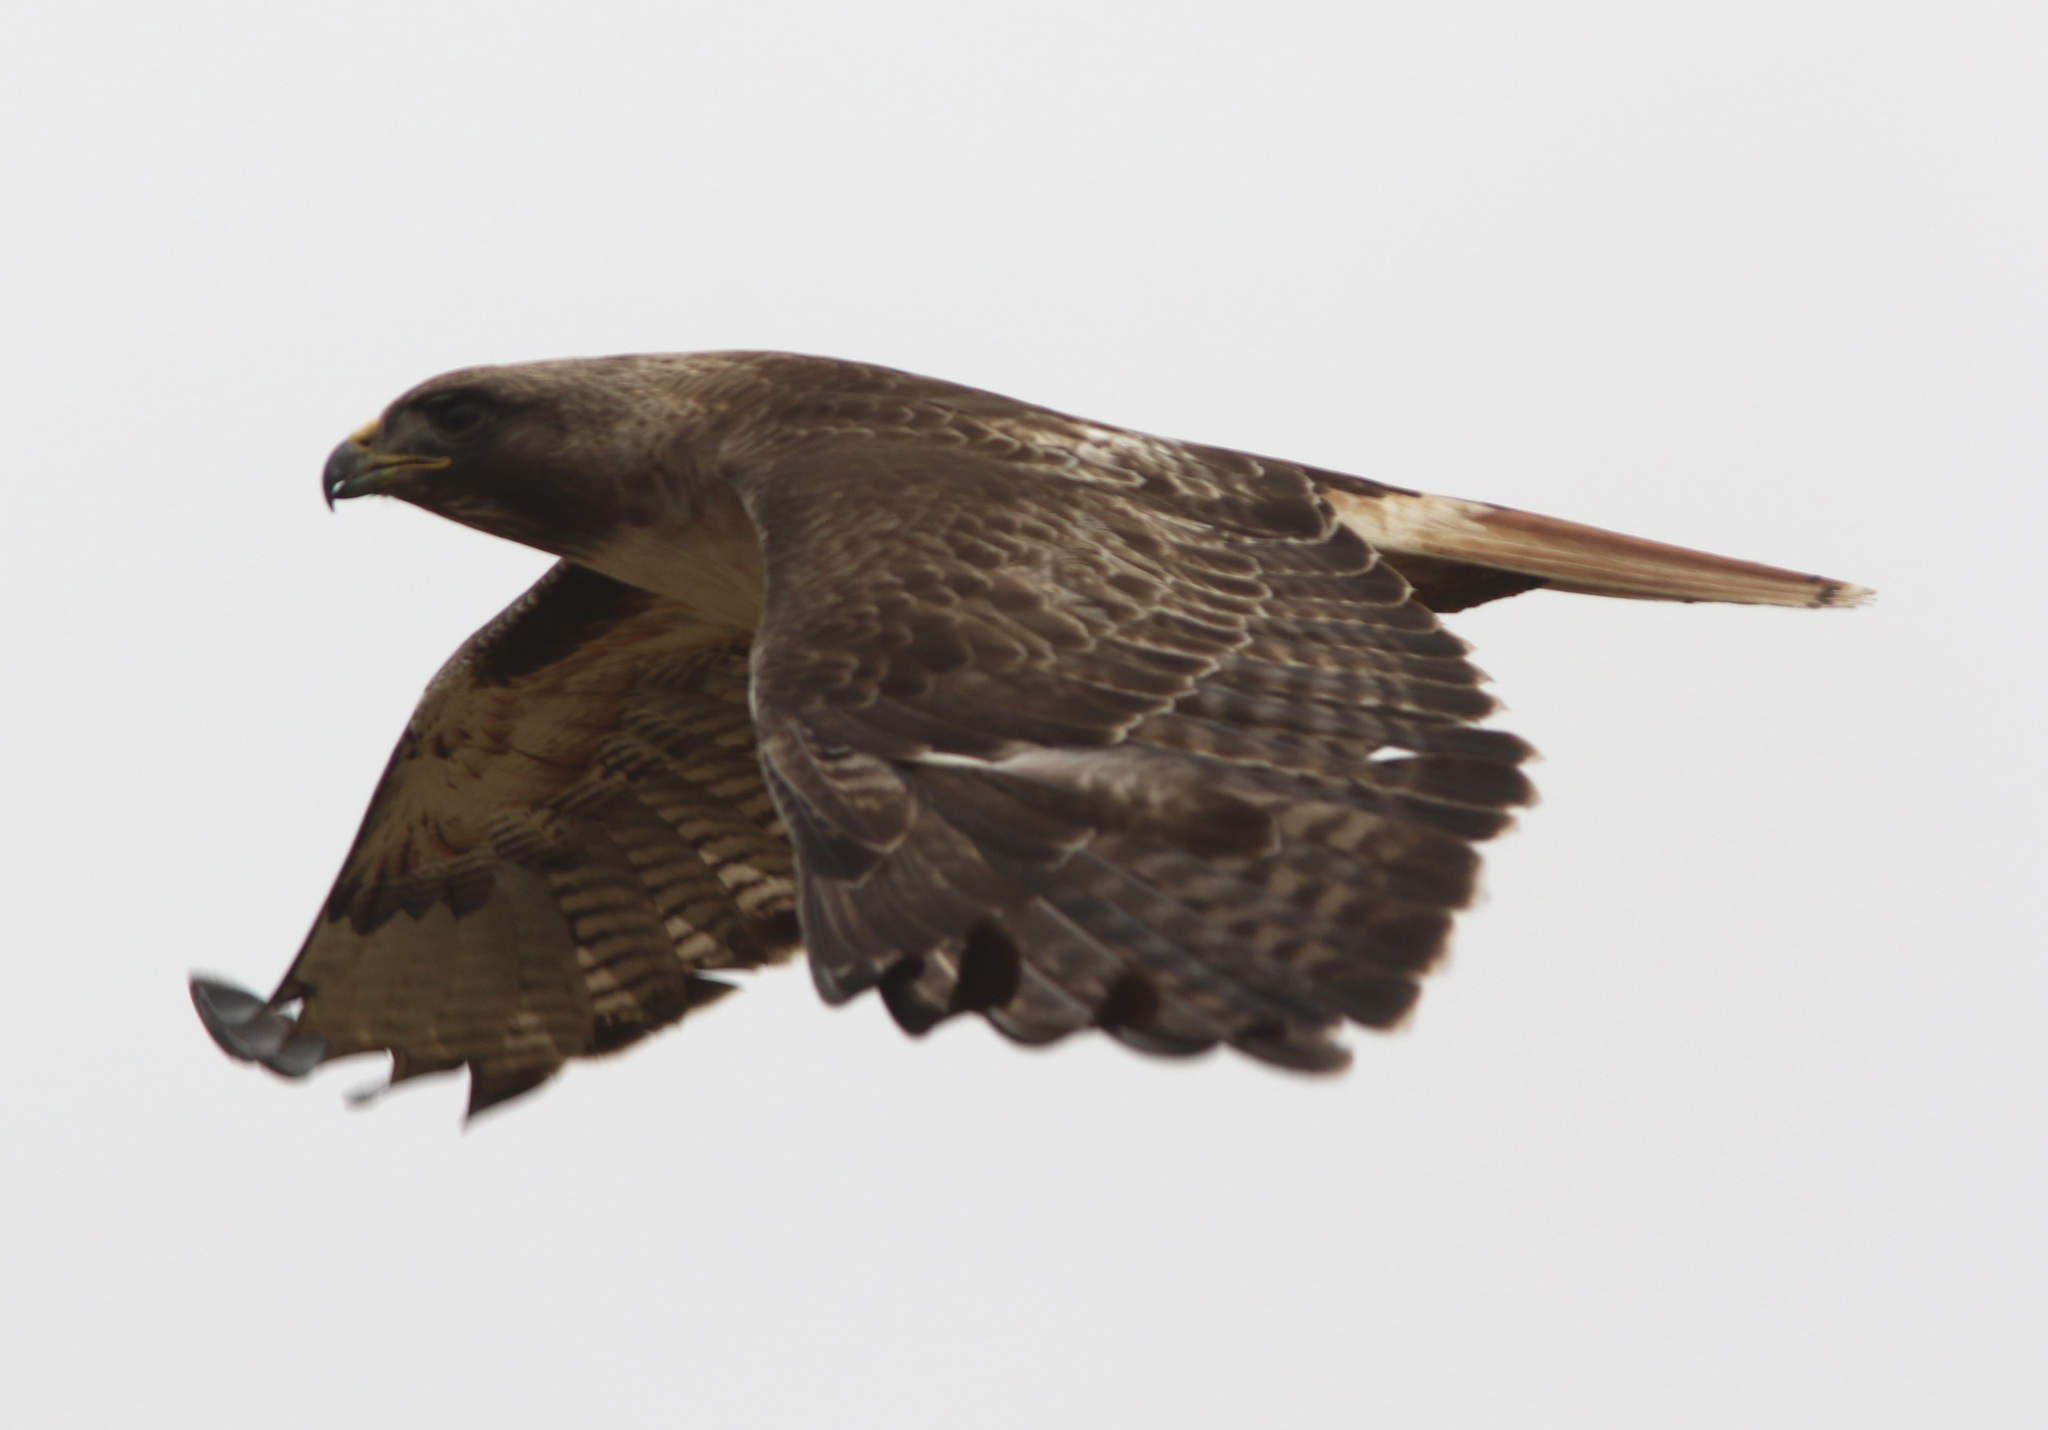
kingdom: Animalia
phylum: Chordata
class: Aves
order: Accipitriformes
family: Accipitridae
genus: Buteo
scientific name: Buteo jamaicensis
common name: Red-tailed hawk
